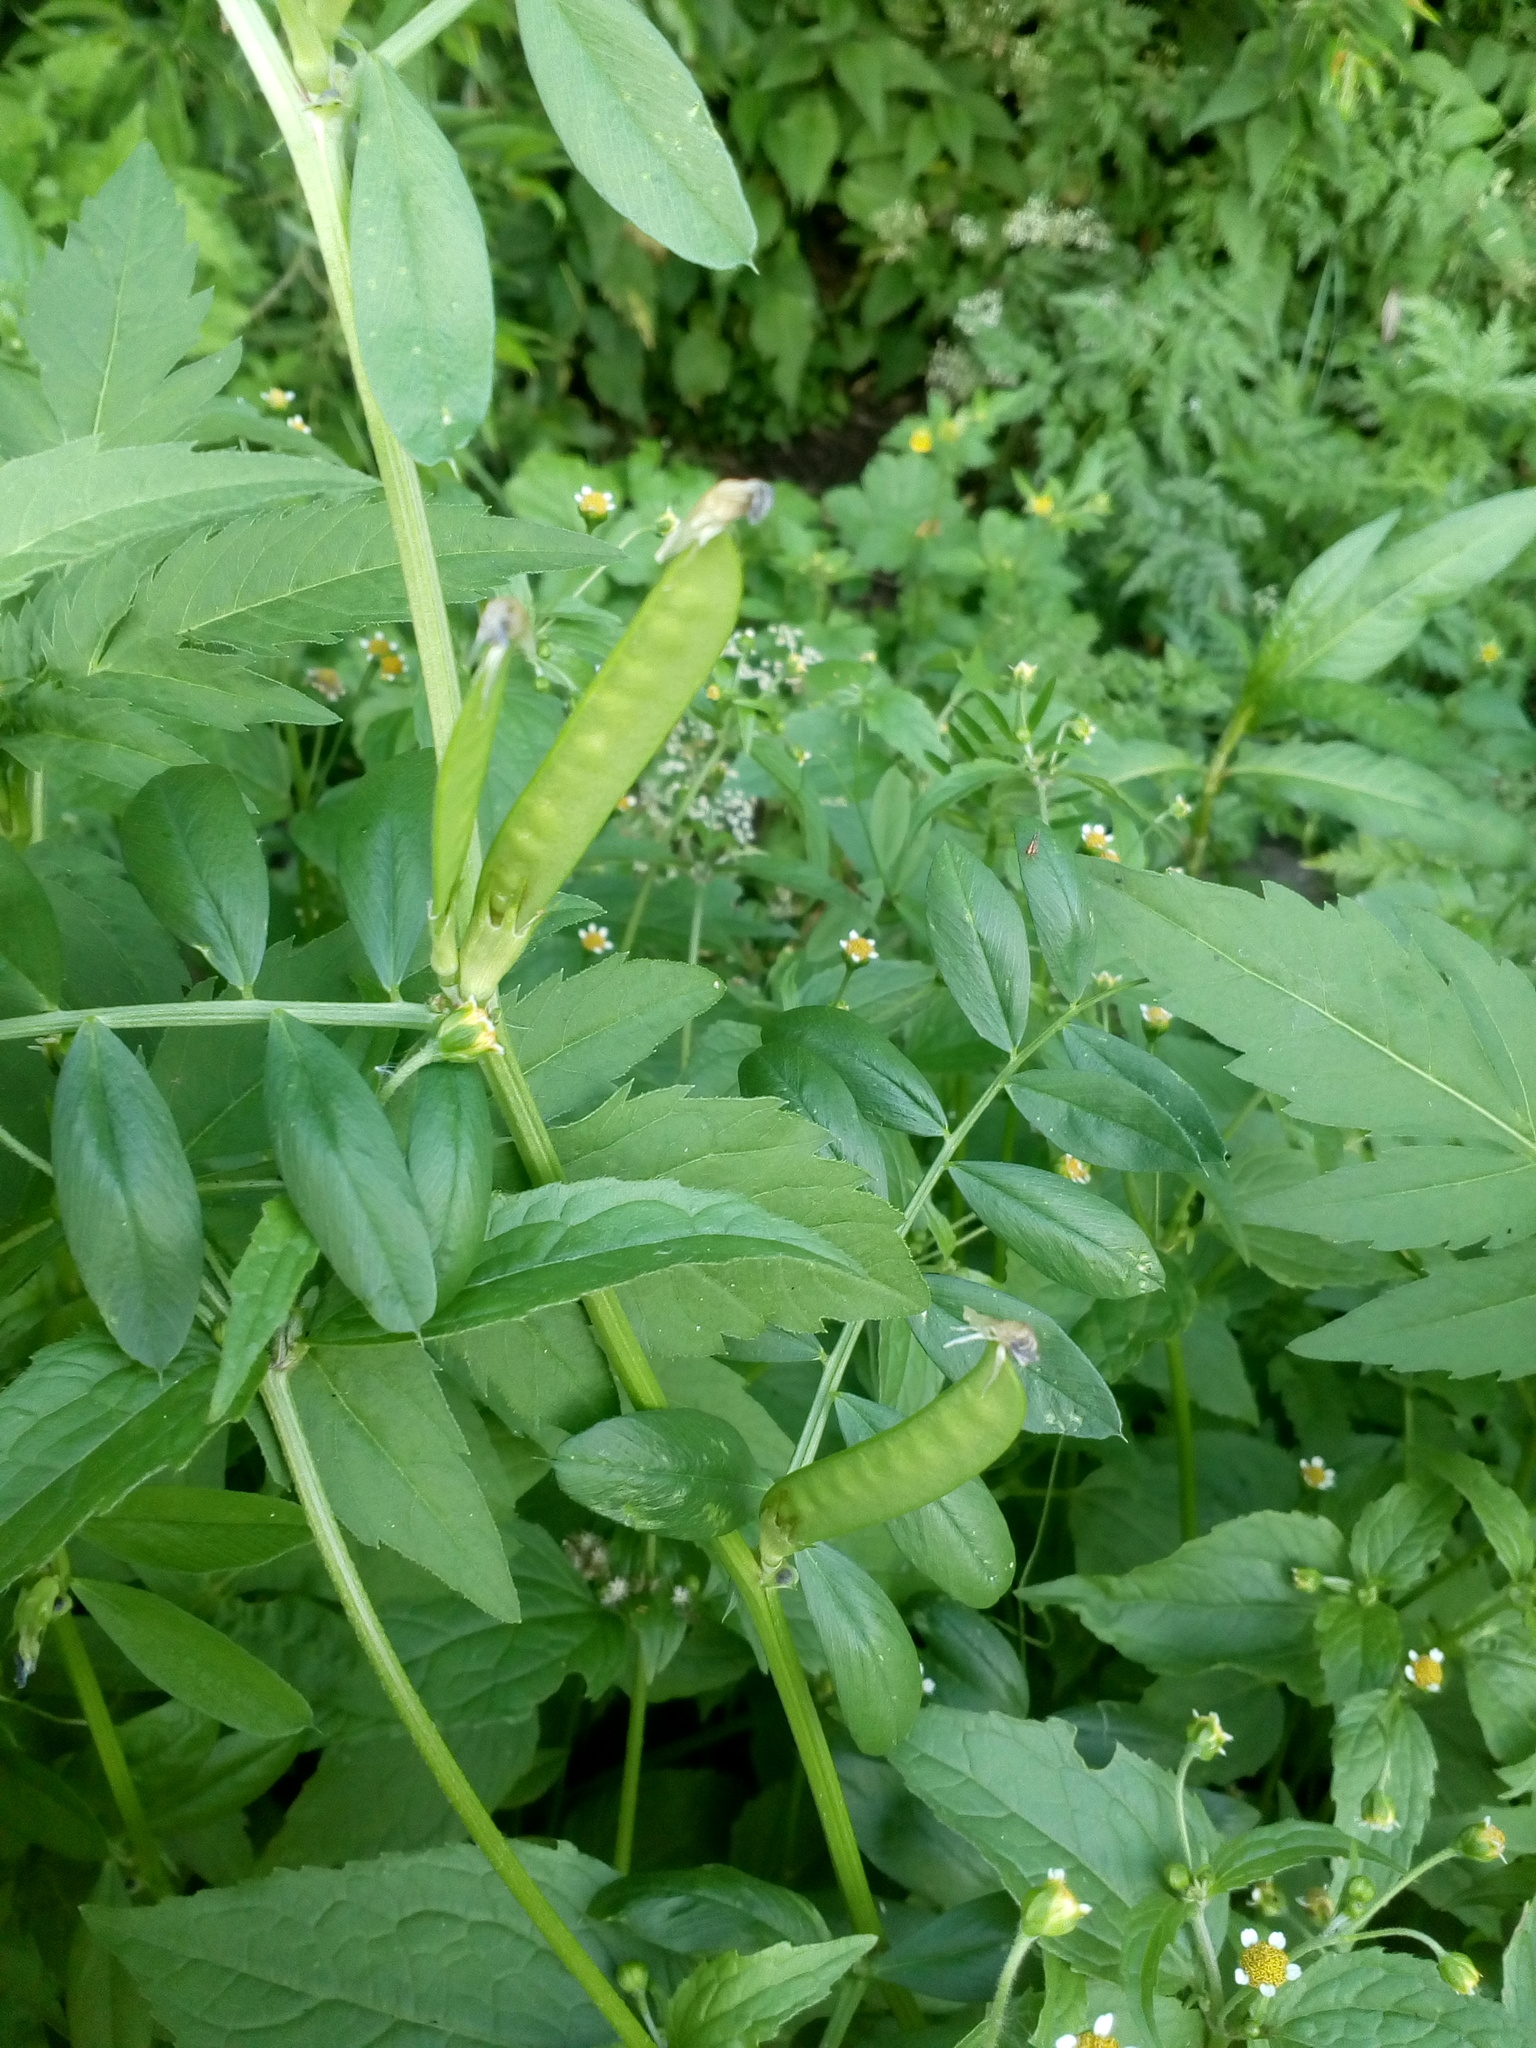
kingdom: Plantae
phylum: Tracheophyta
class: Magnoliopsida
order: Fabales
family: Fabaceae
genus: Vicia
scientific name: Vicia sativa
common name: Garden vetch
